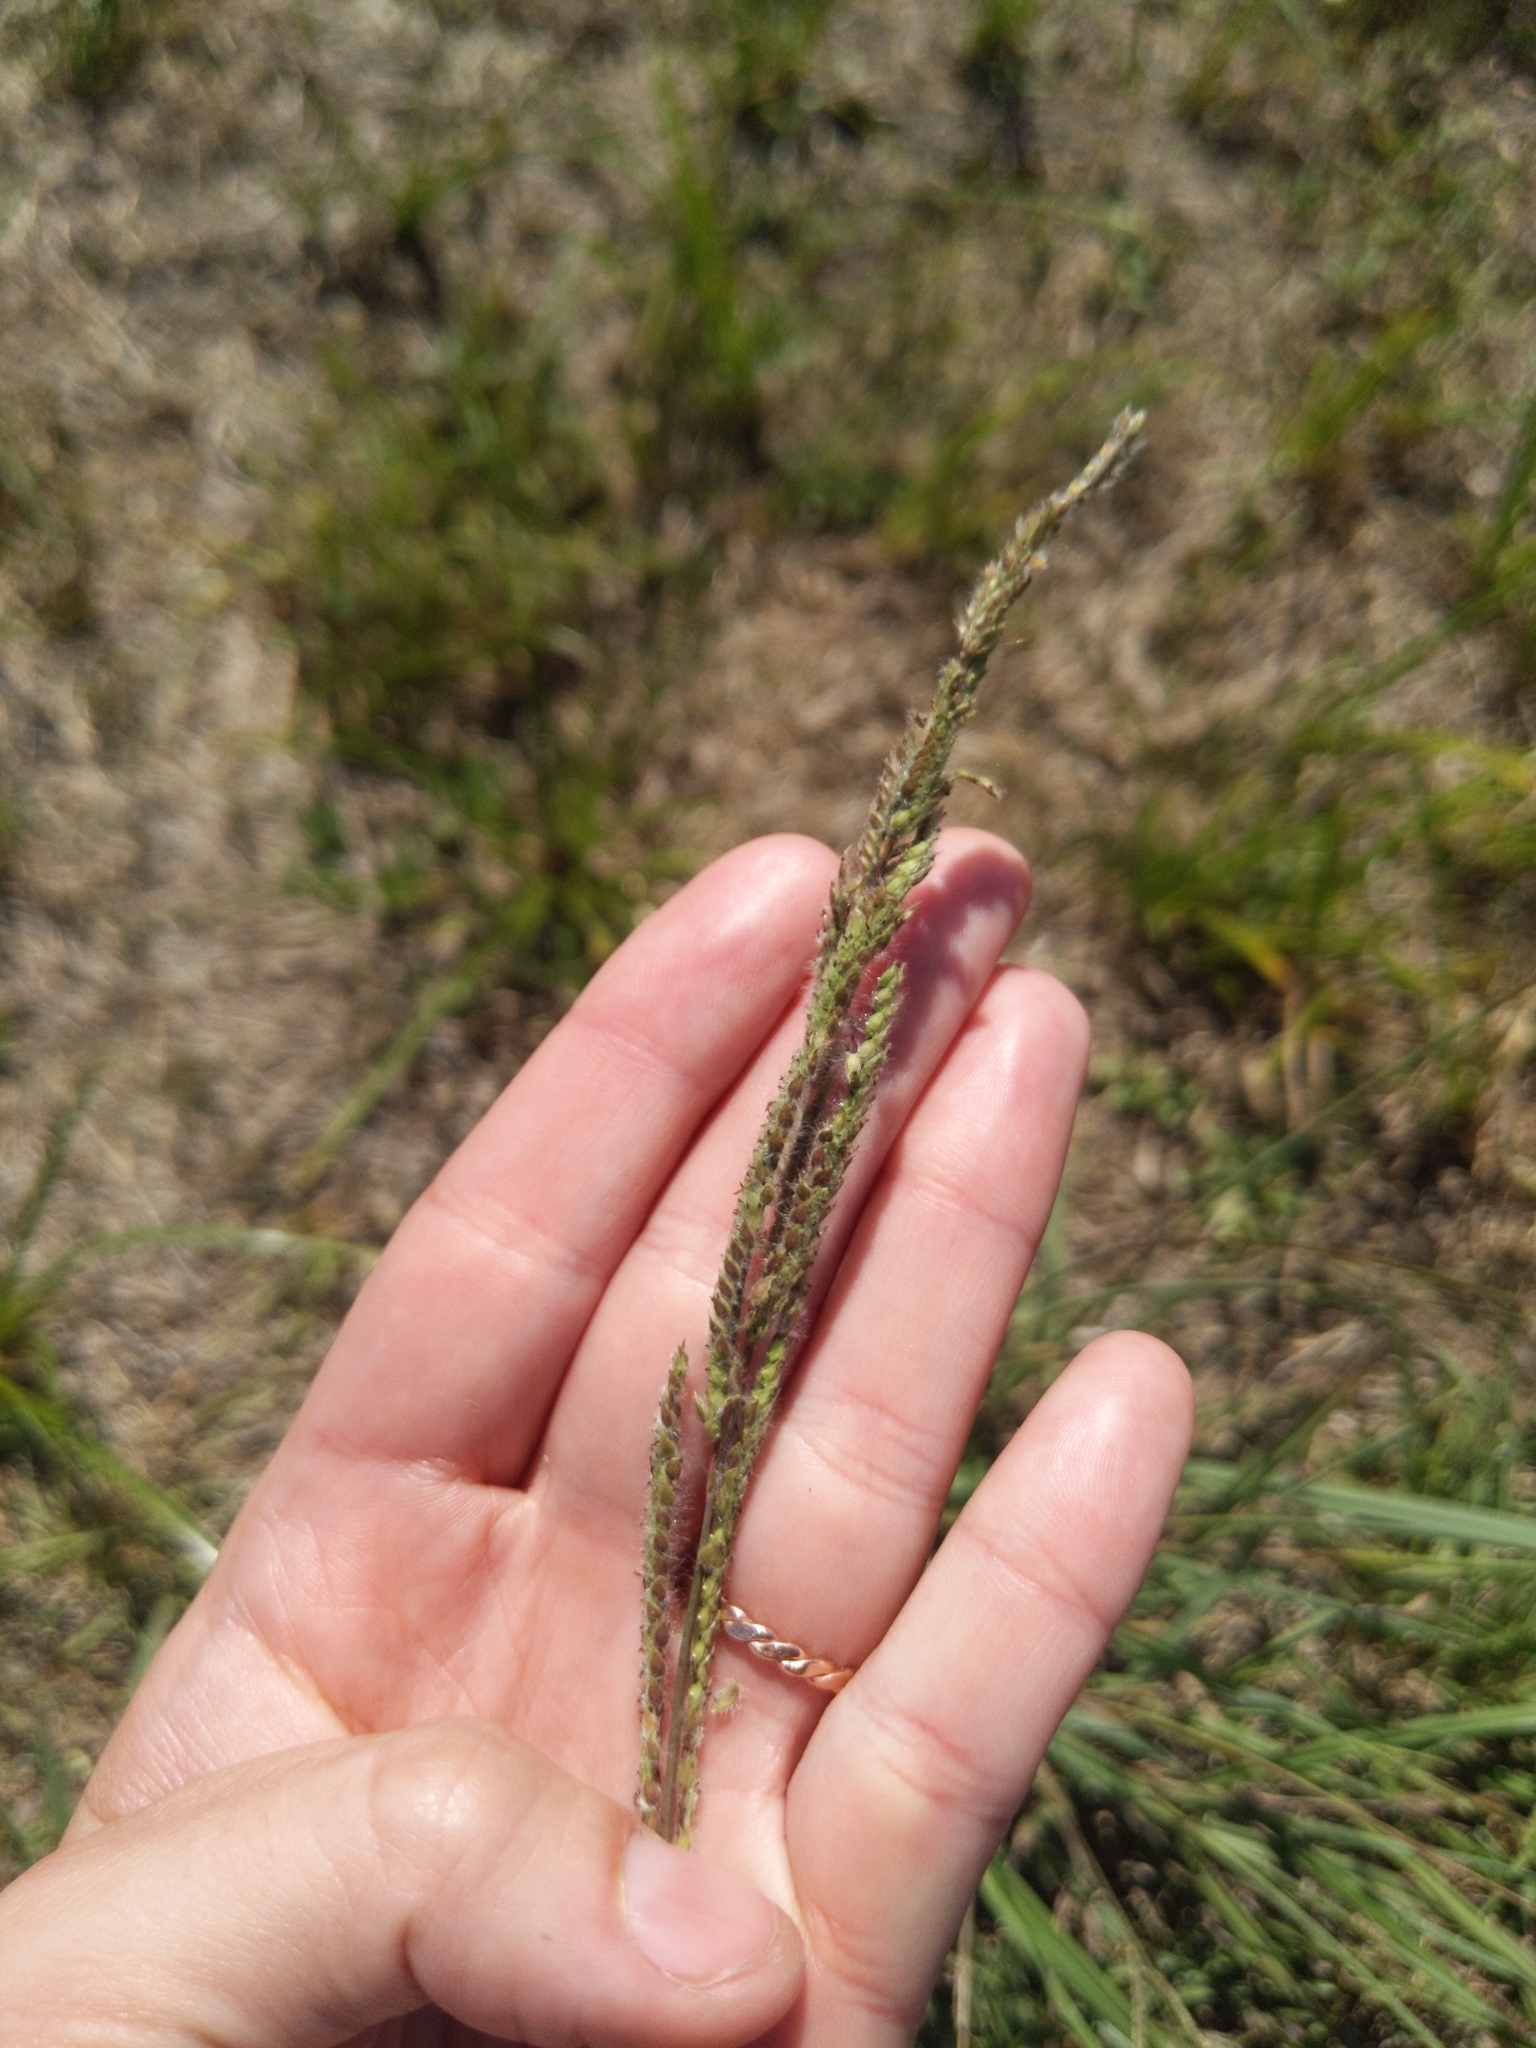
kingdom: Plantae
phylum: Tracheophyta
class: Liliopsida
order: Poales
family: Poaceae
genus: Paspalum
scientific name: Paspalum urvillei
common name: Vasey's grass
